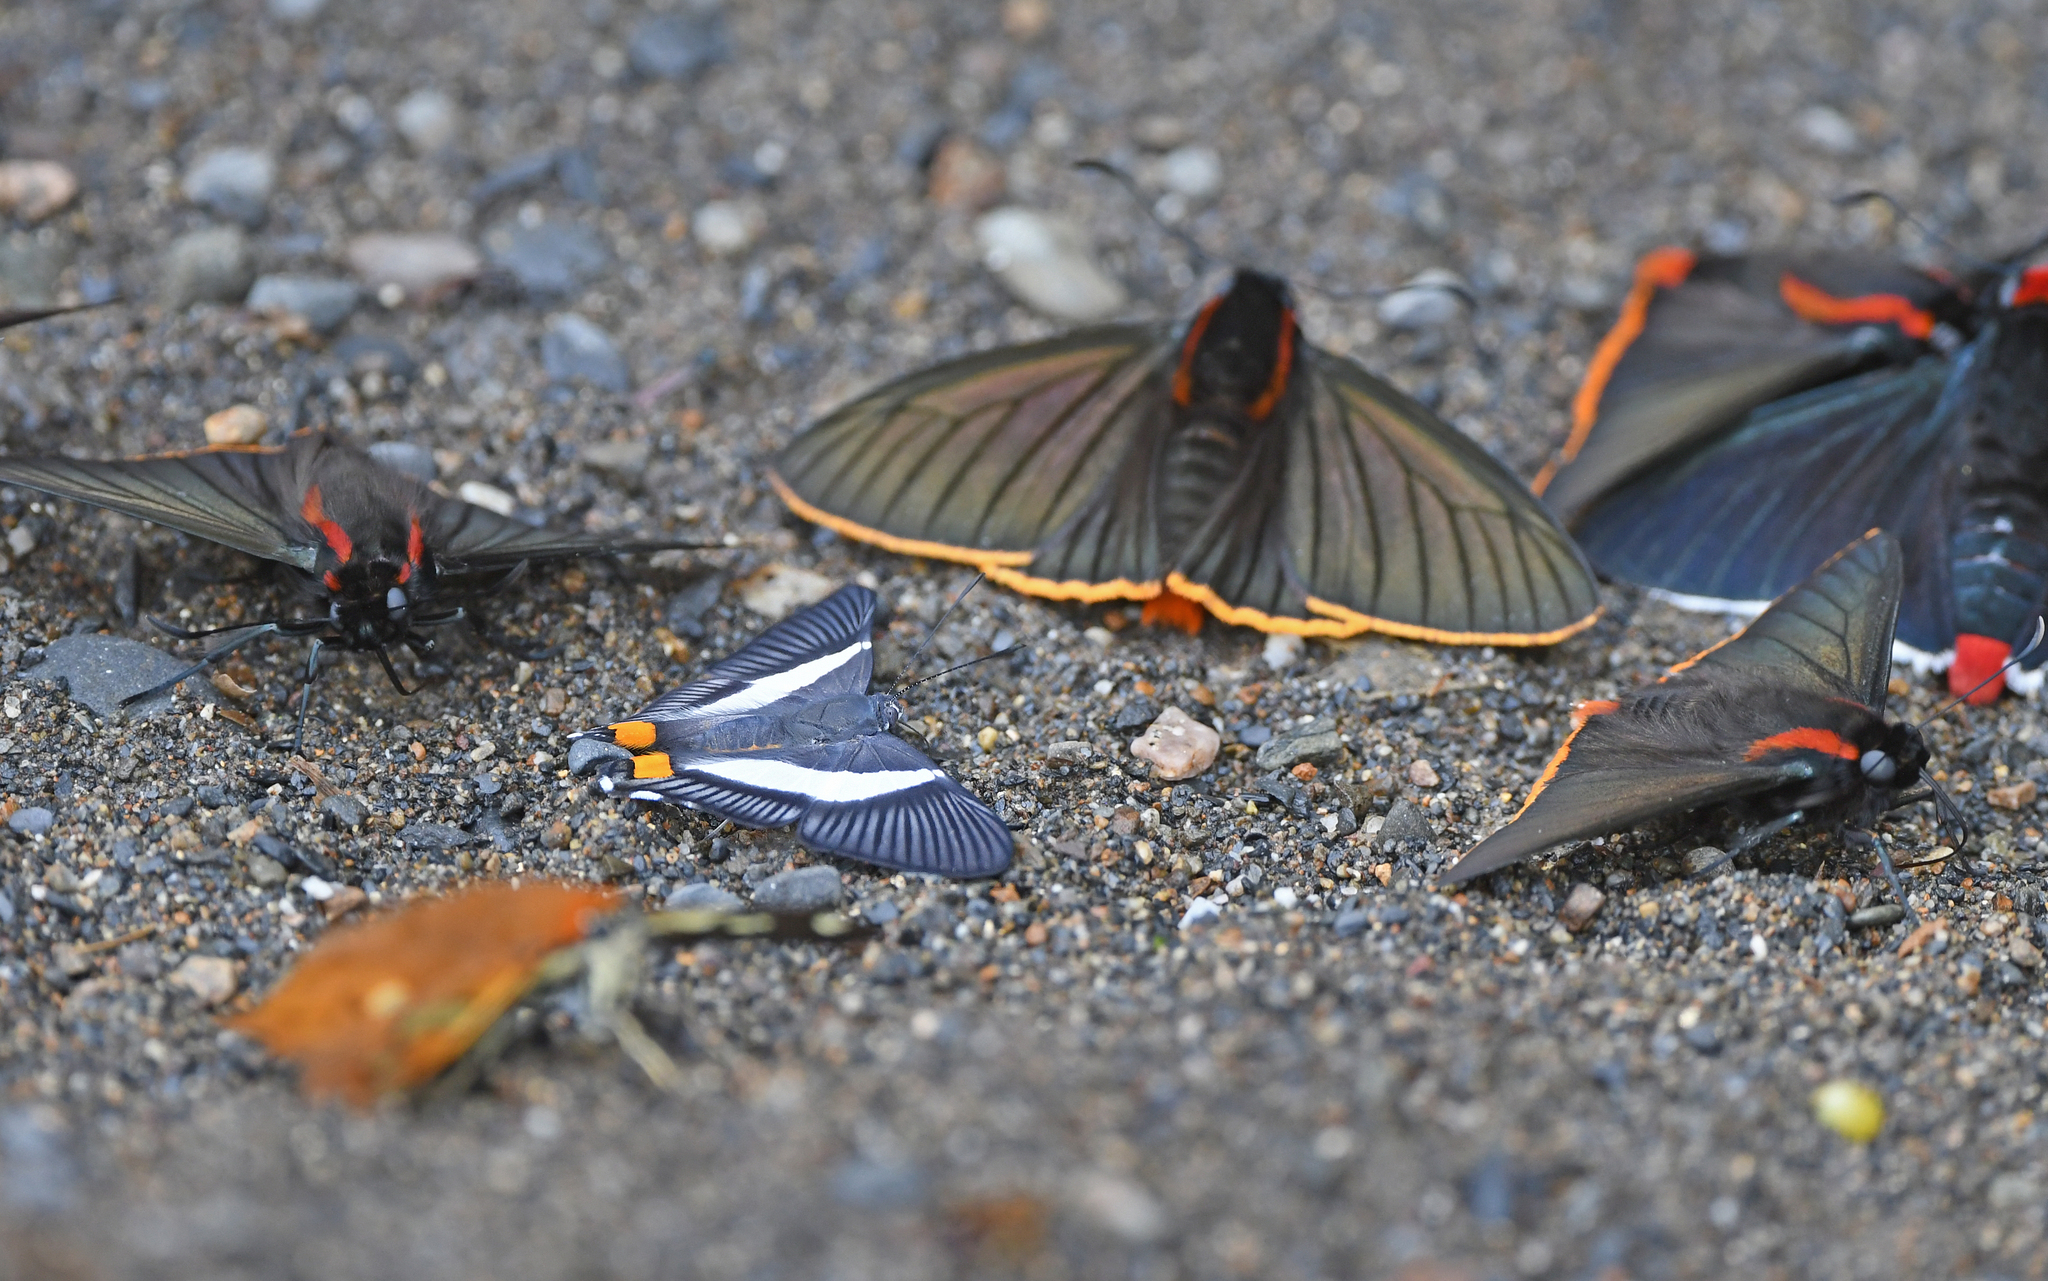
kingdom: Animalia
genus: Siseme
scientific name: Siseme neurodes
